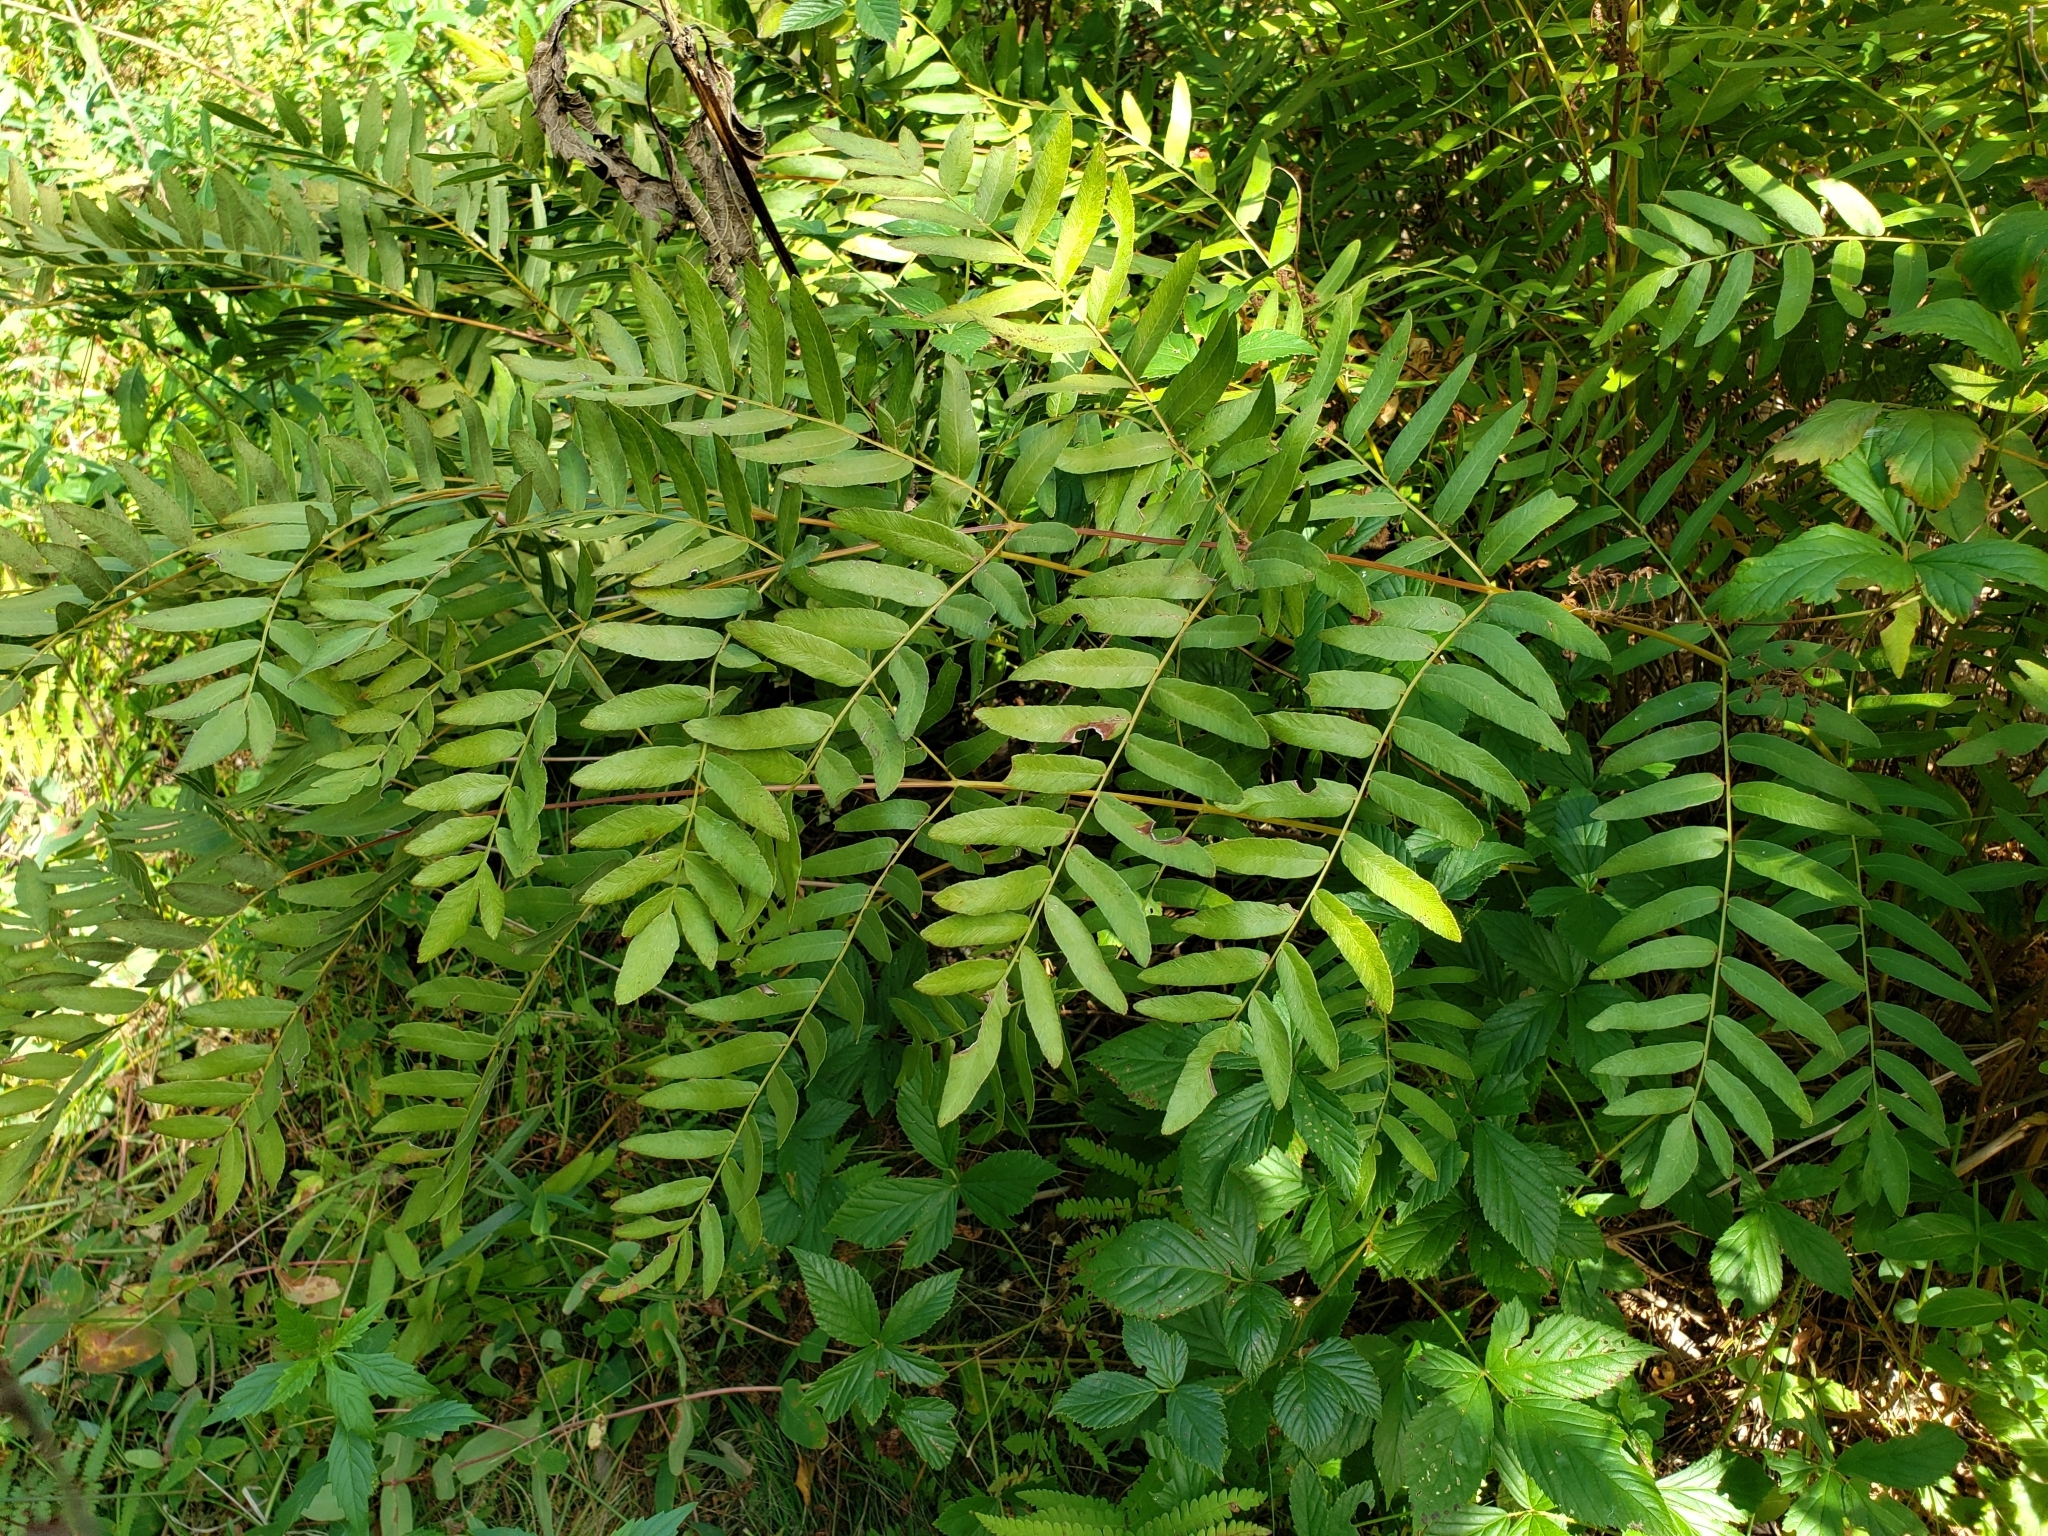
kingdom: Plantae
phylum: Tracheophyta
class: Polypodiopsida
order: Osmundales
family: Osmundaceae
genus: Osmunda
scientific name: Osmunda spectabilis
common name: American royal fern
